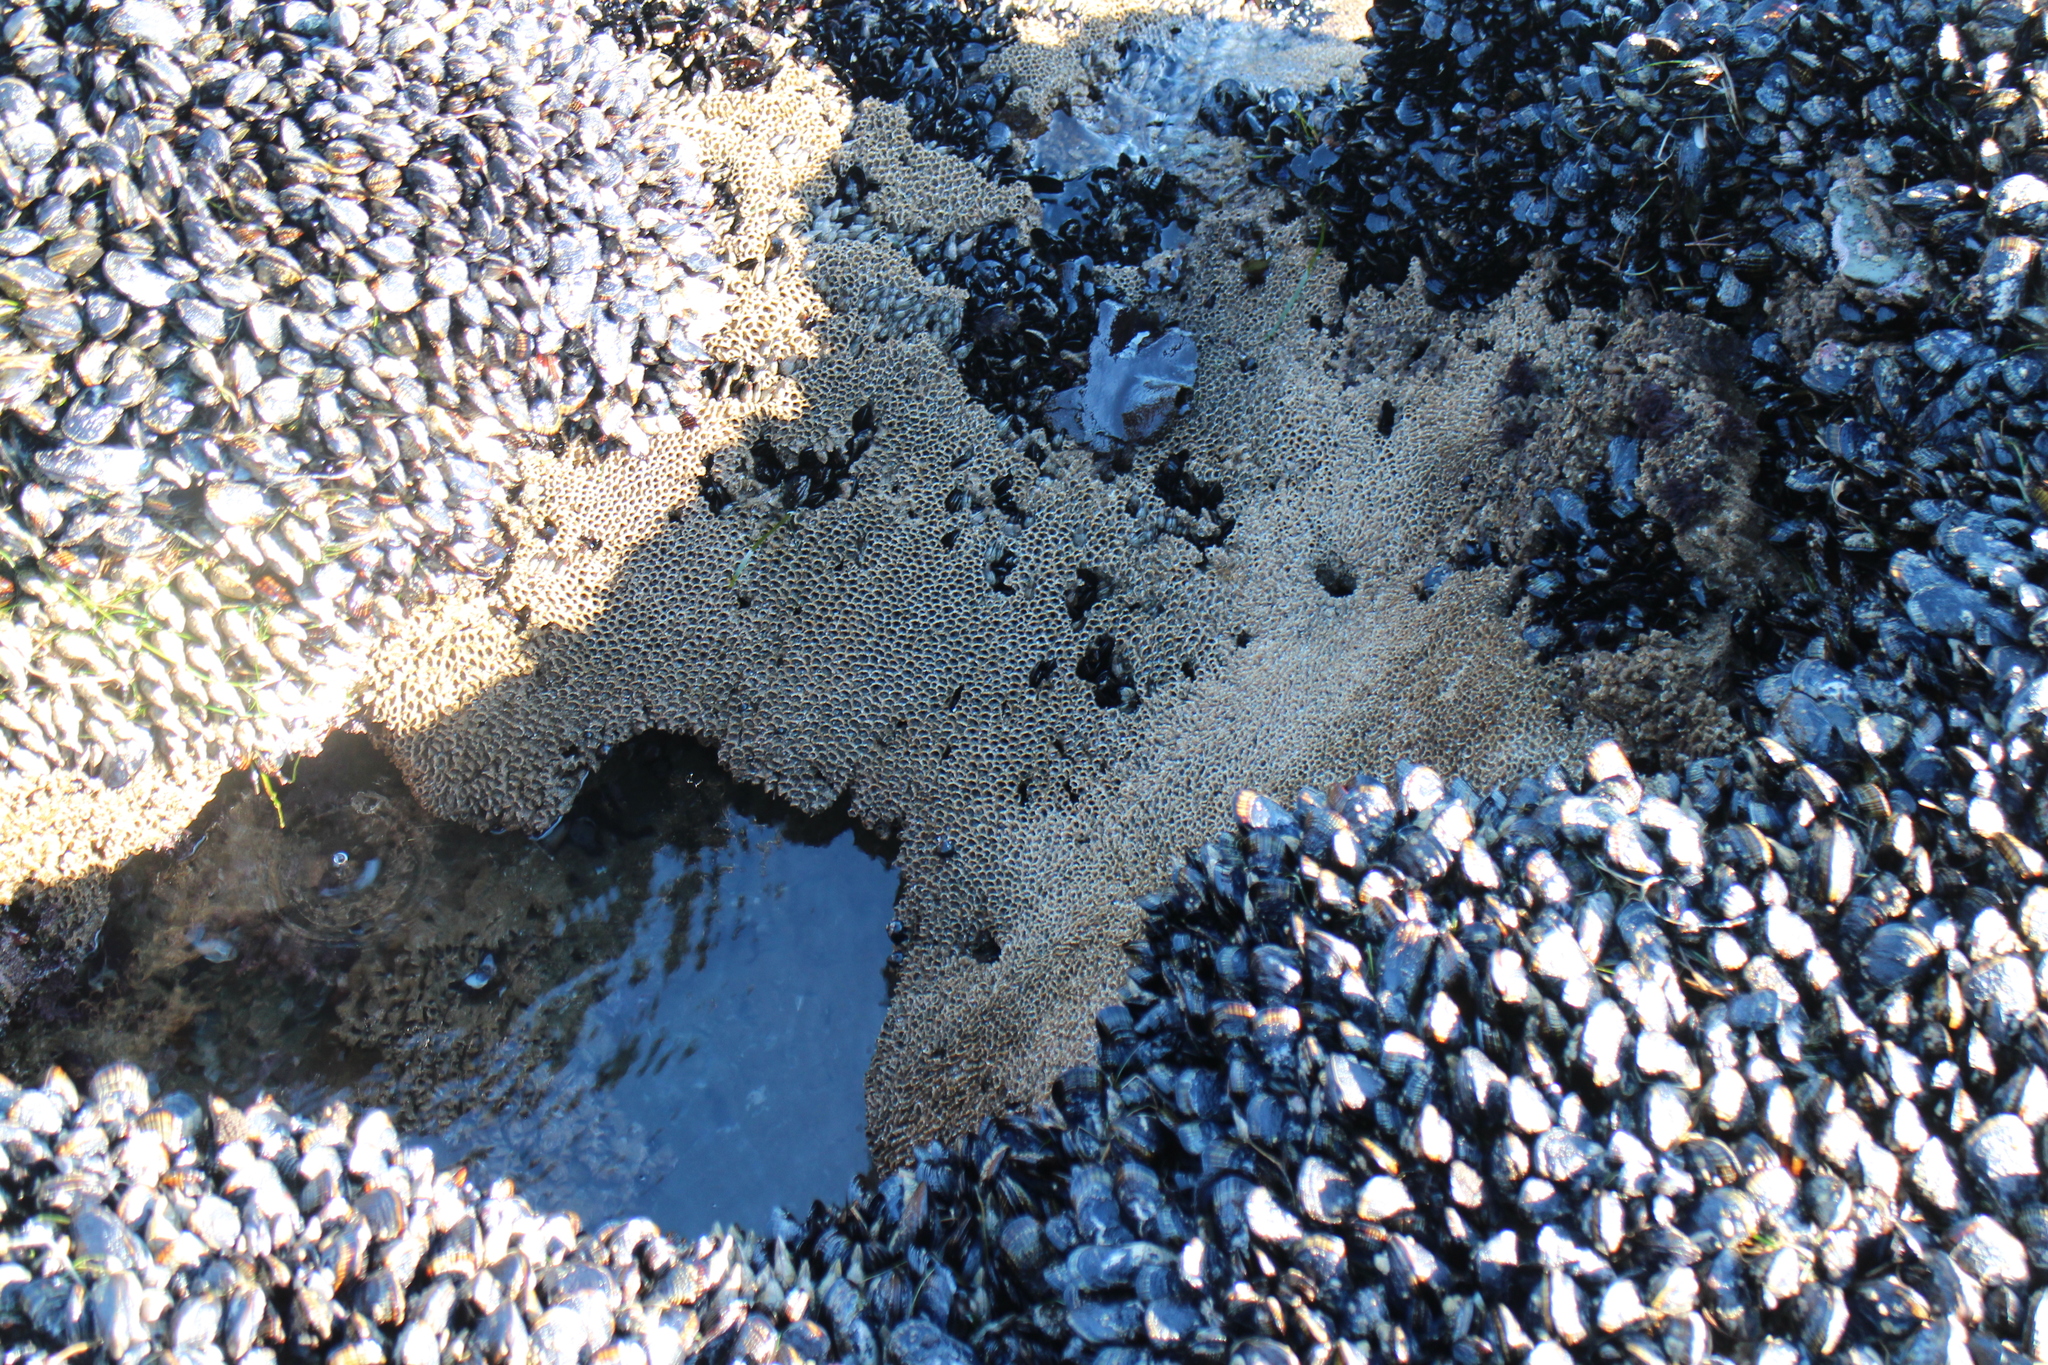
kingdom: Animalia
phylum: Annelida
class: Polychaeta
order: Sabellida
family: Sabellariidae
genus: Phragmatopoma
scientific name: Phragmatopoma californica
